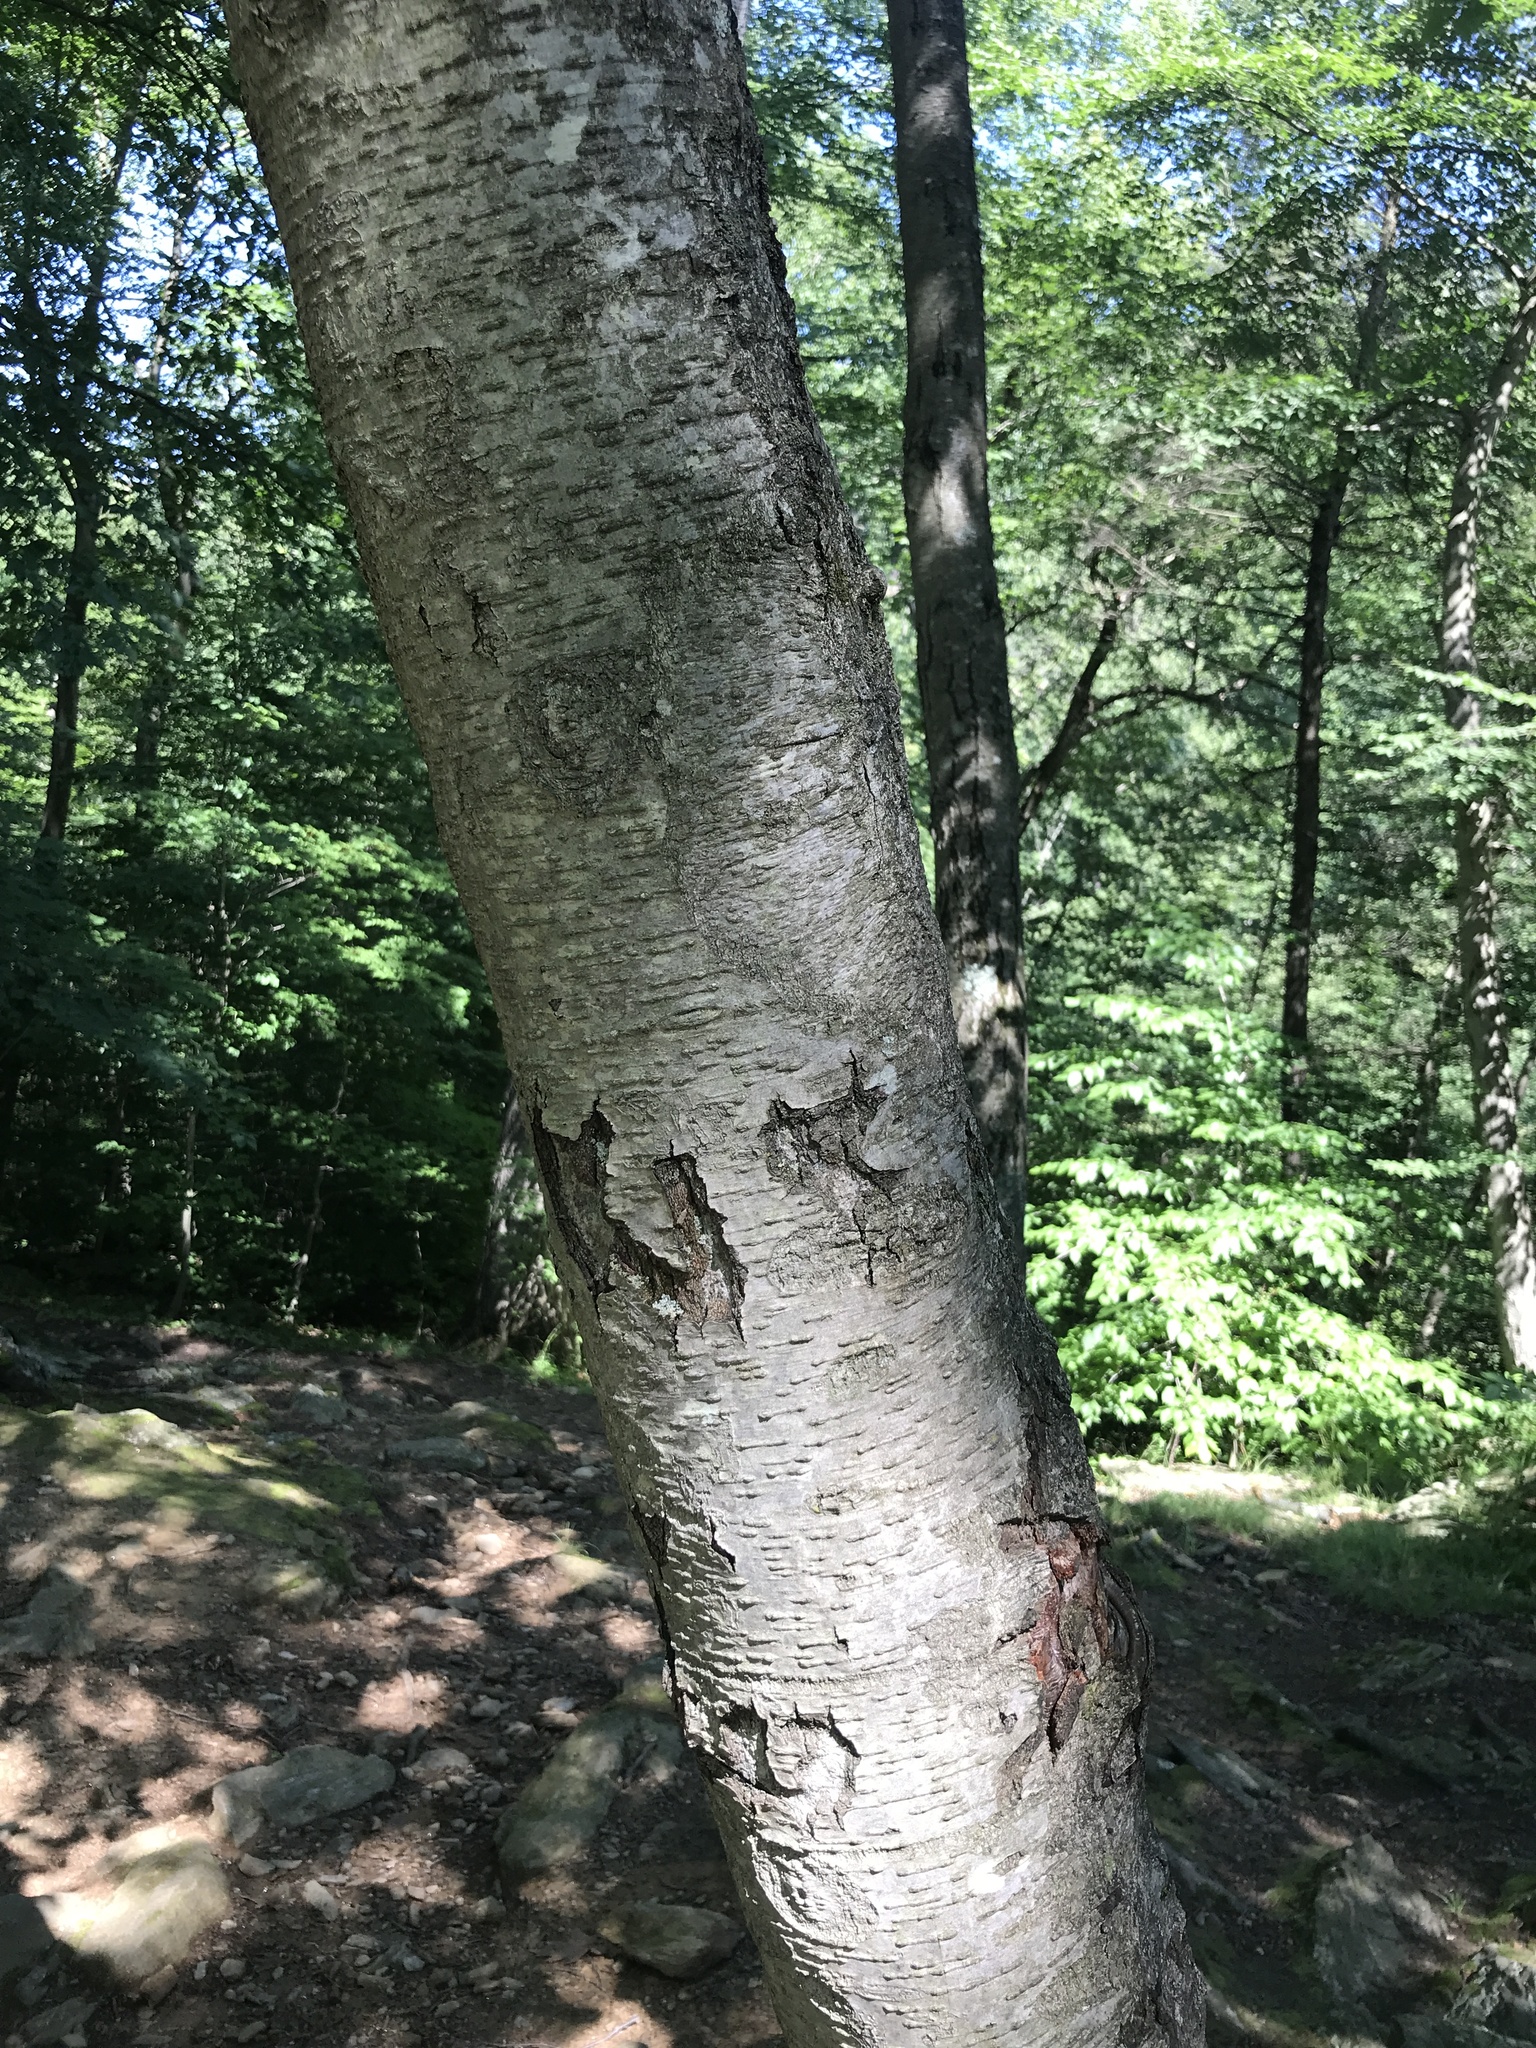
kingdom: Plantae
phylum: Tracheophyta
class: Magnoliopsida
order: Fagales
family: Betulaceae
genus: Betula
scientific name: Betula lenta
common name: Black birch
